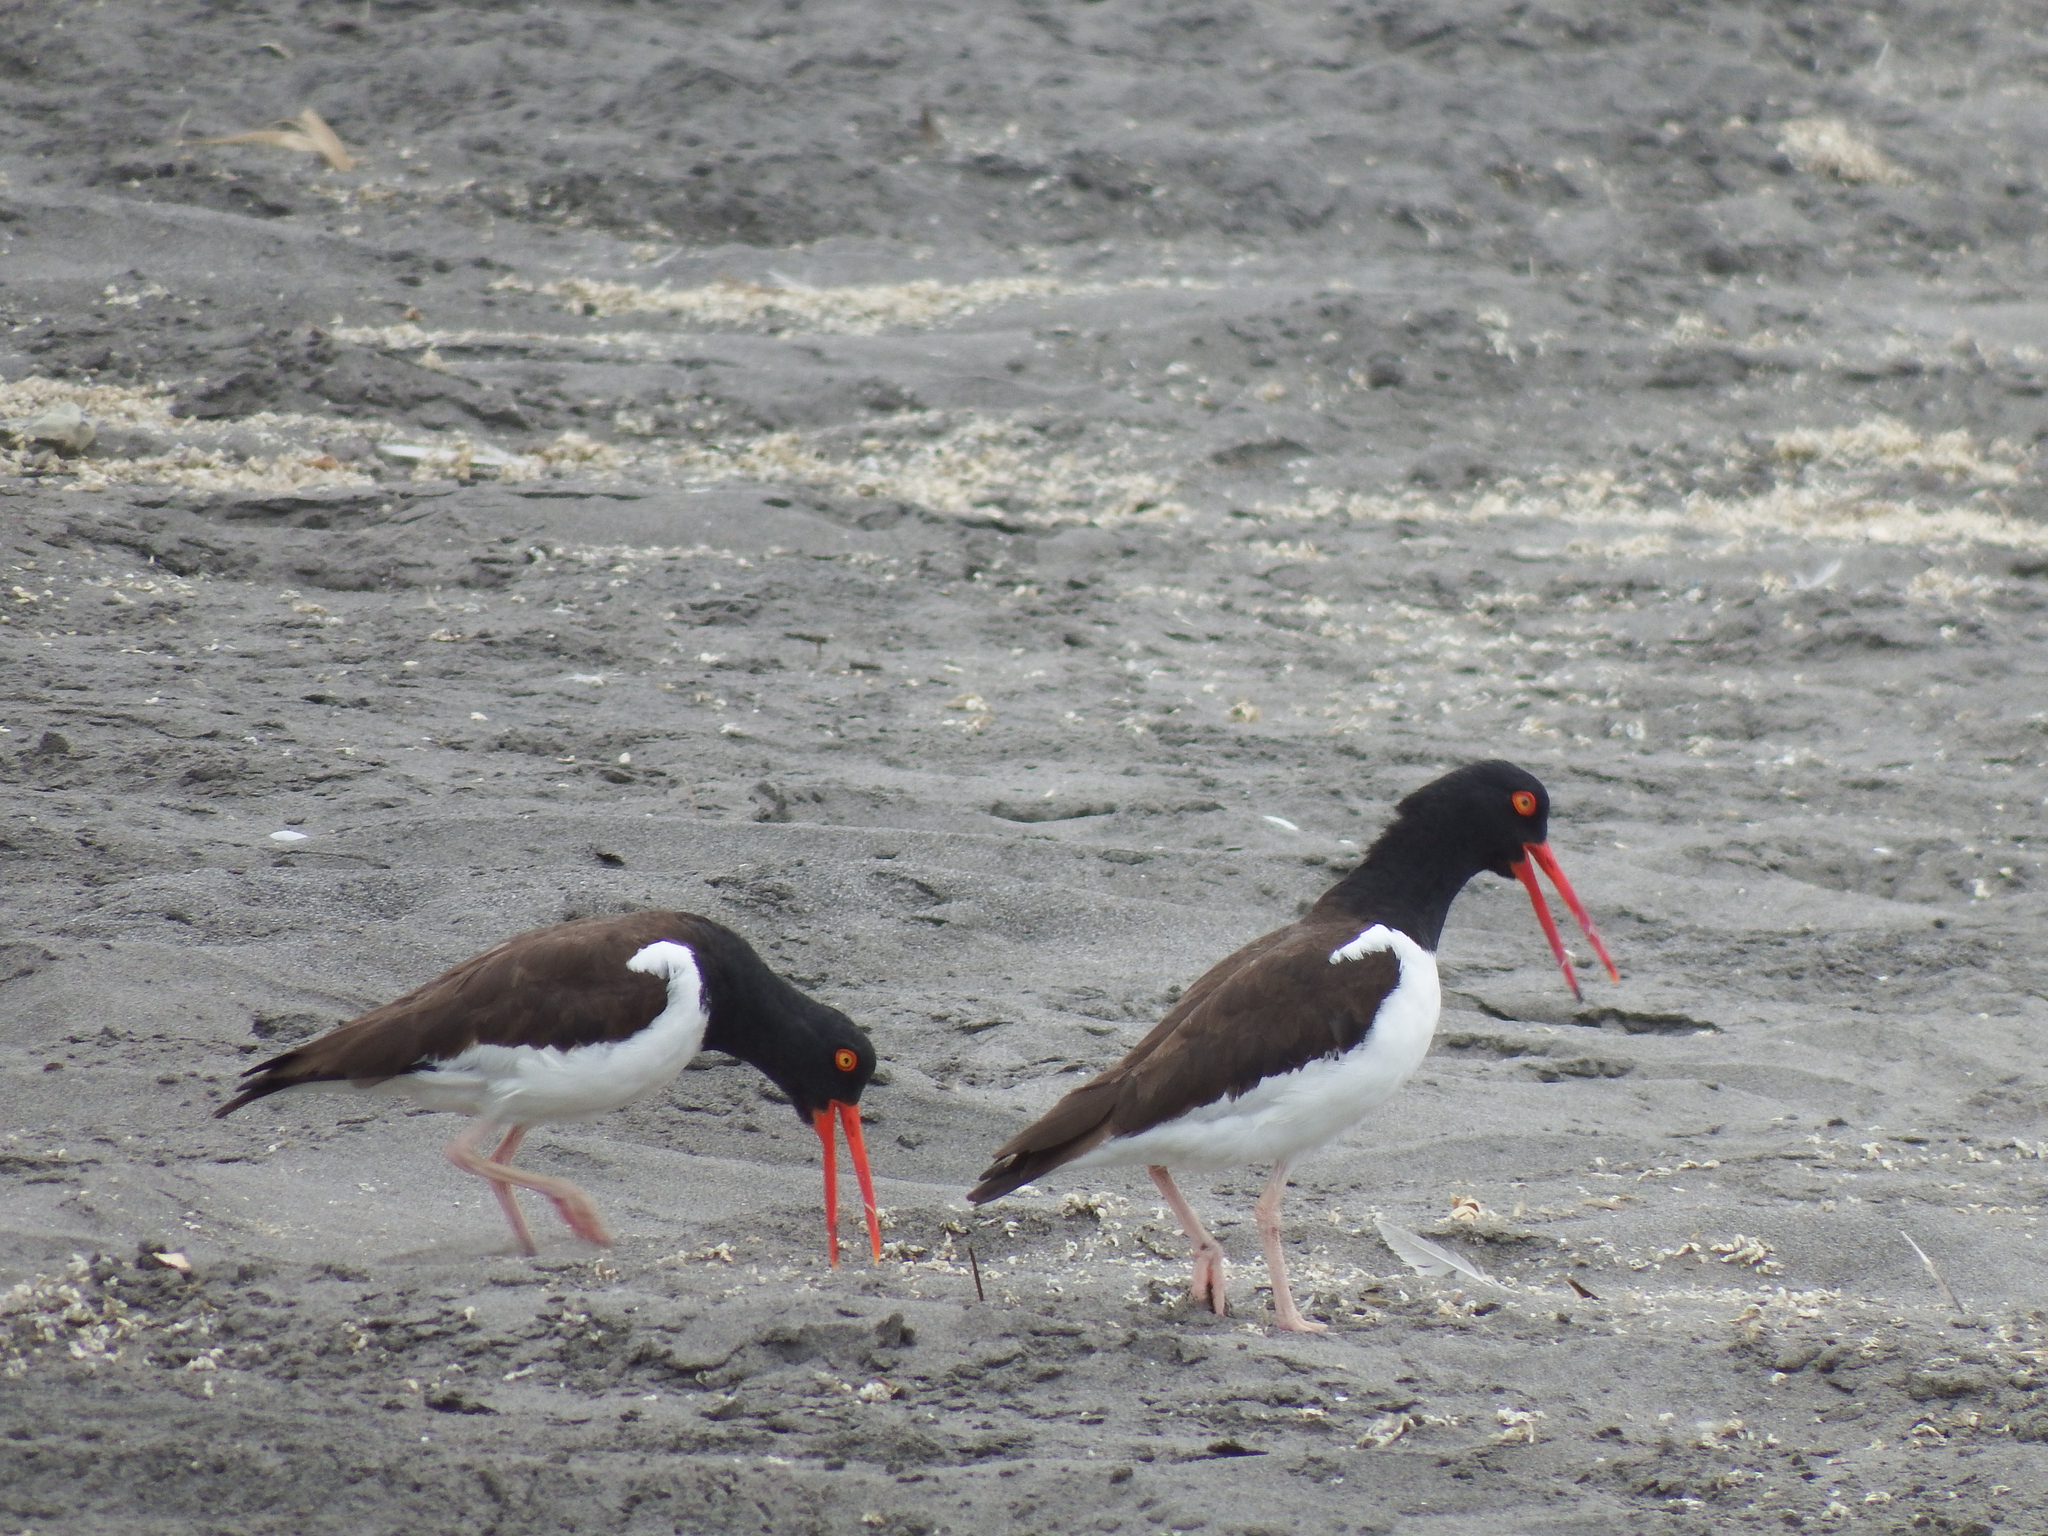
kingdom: Animalia
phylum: Chordata
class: Aves
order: Charadriiformes
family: Haematopodidae
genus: Haematopus
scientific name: Haematopus palliatus
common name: American oystercatcher
